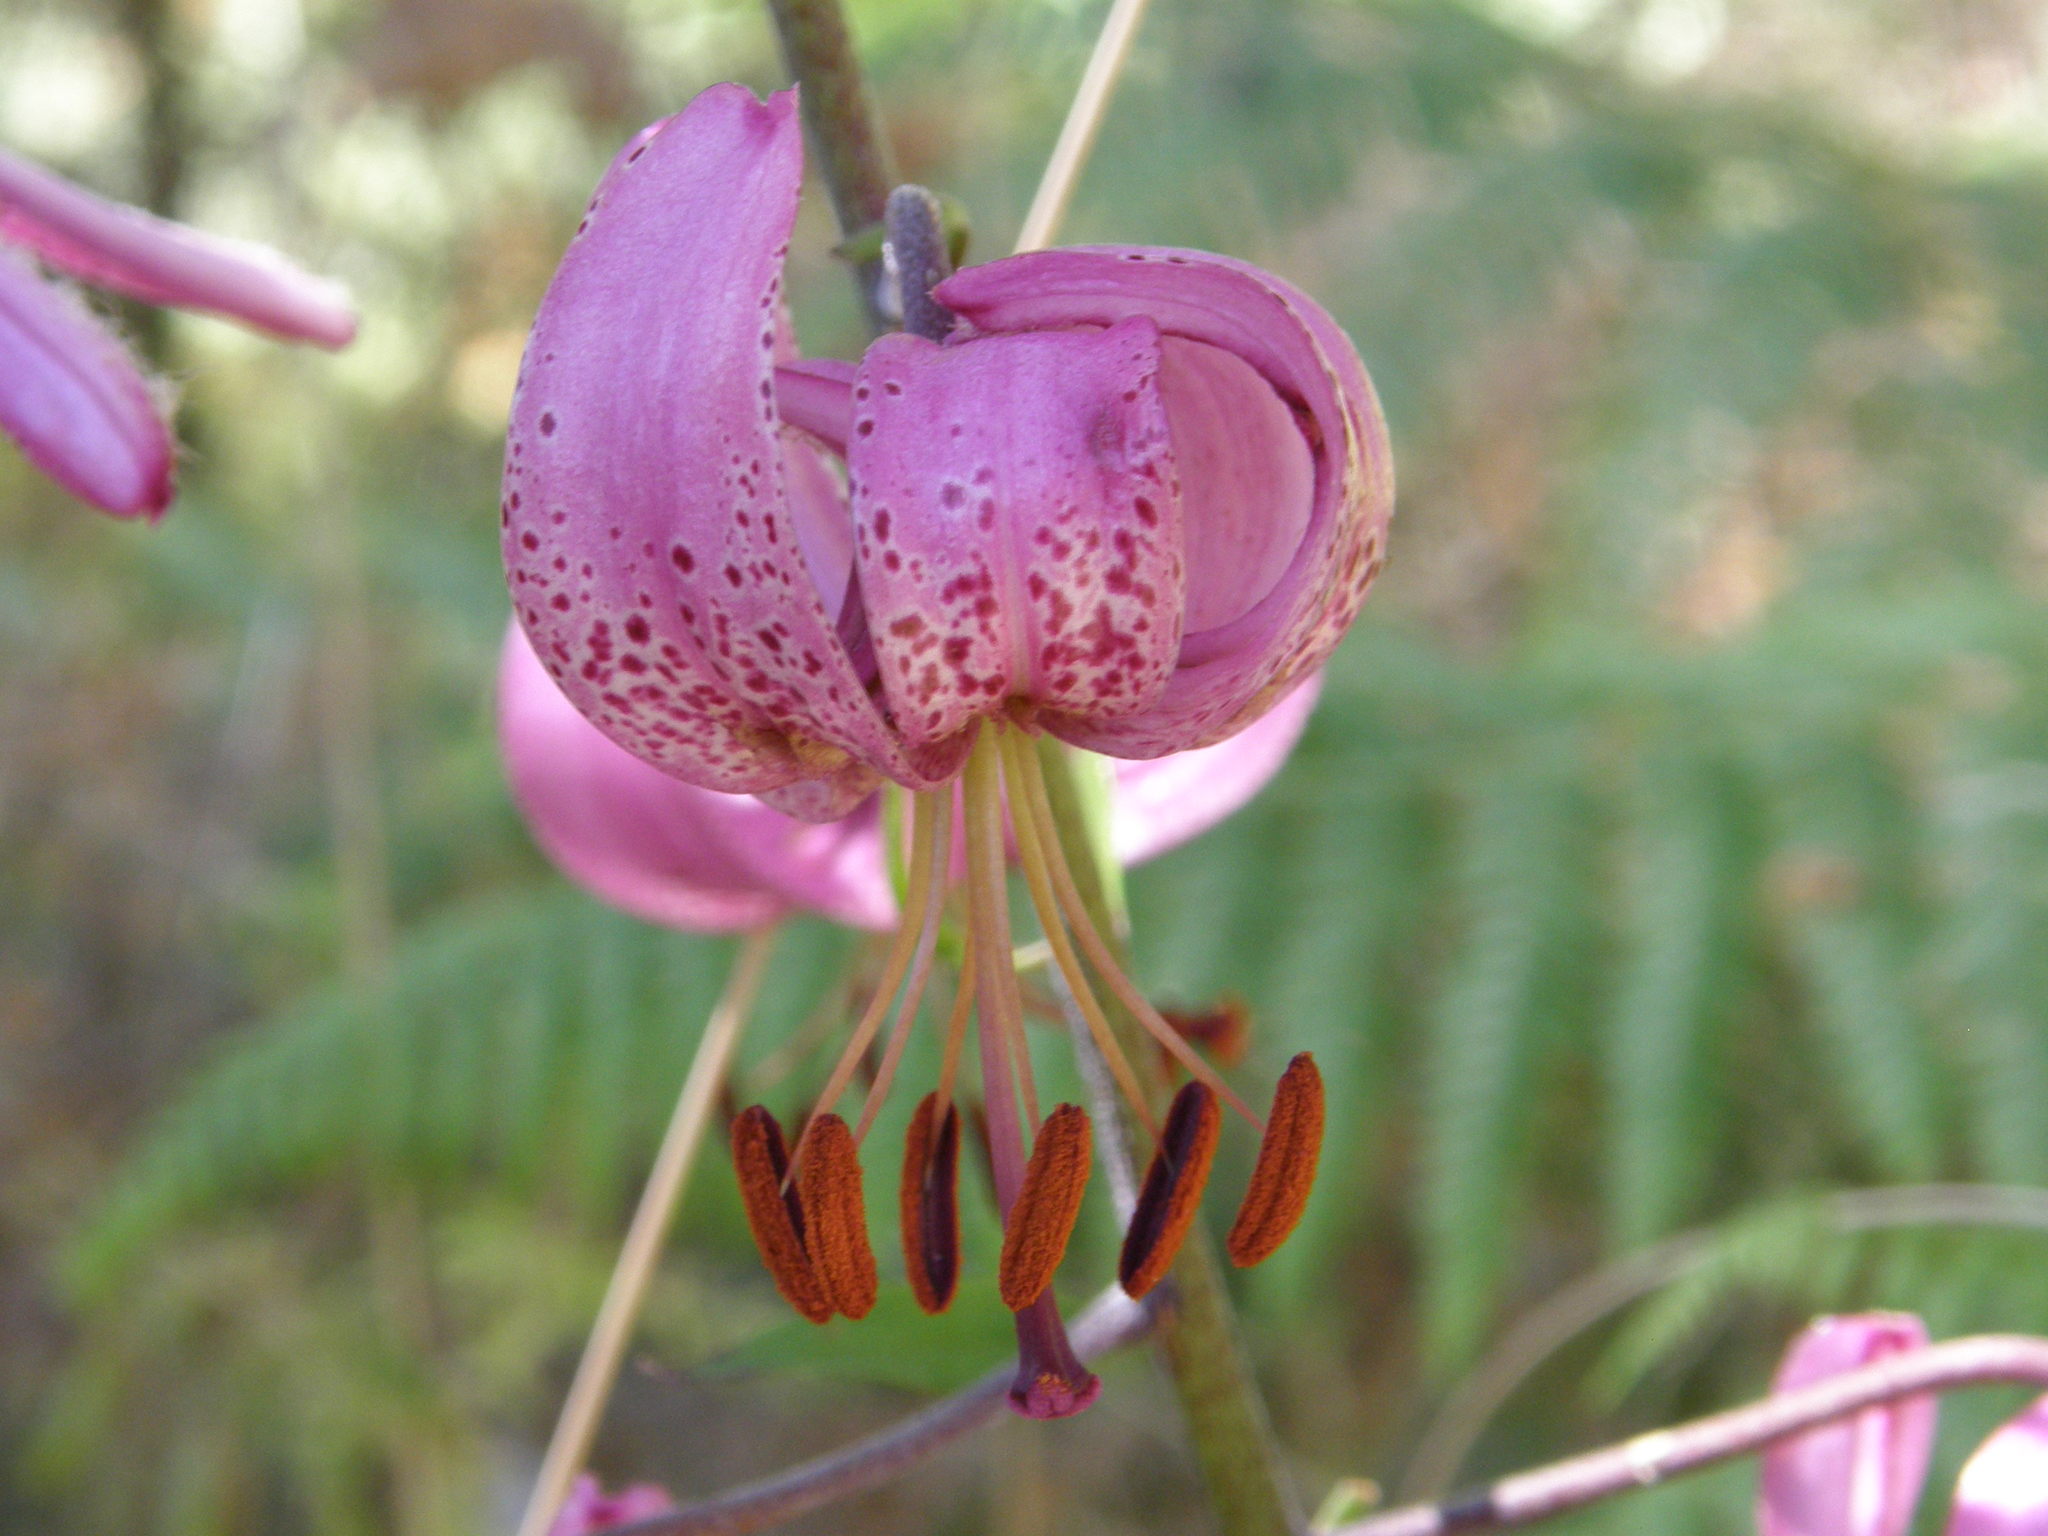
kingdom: Plantae
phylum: Tracheophyta
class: Liliopsida
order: Liliales
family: Liliaceae
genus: Lilium
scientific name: Lilium martagon
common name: Martagon lily
